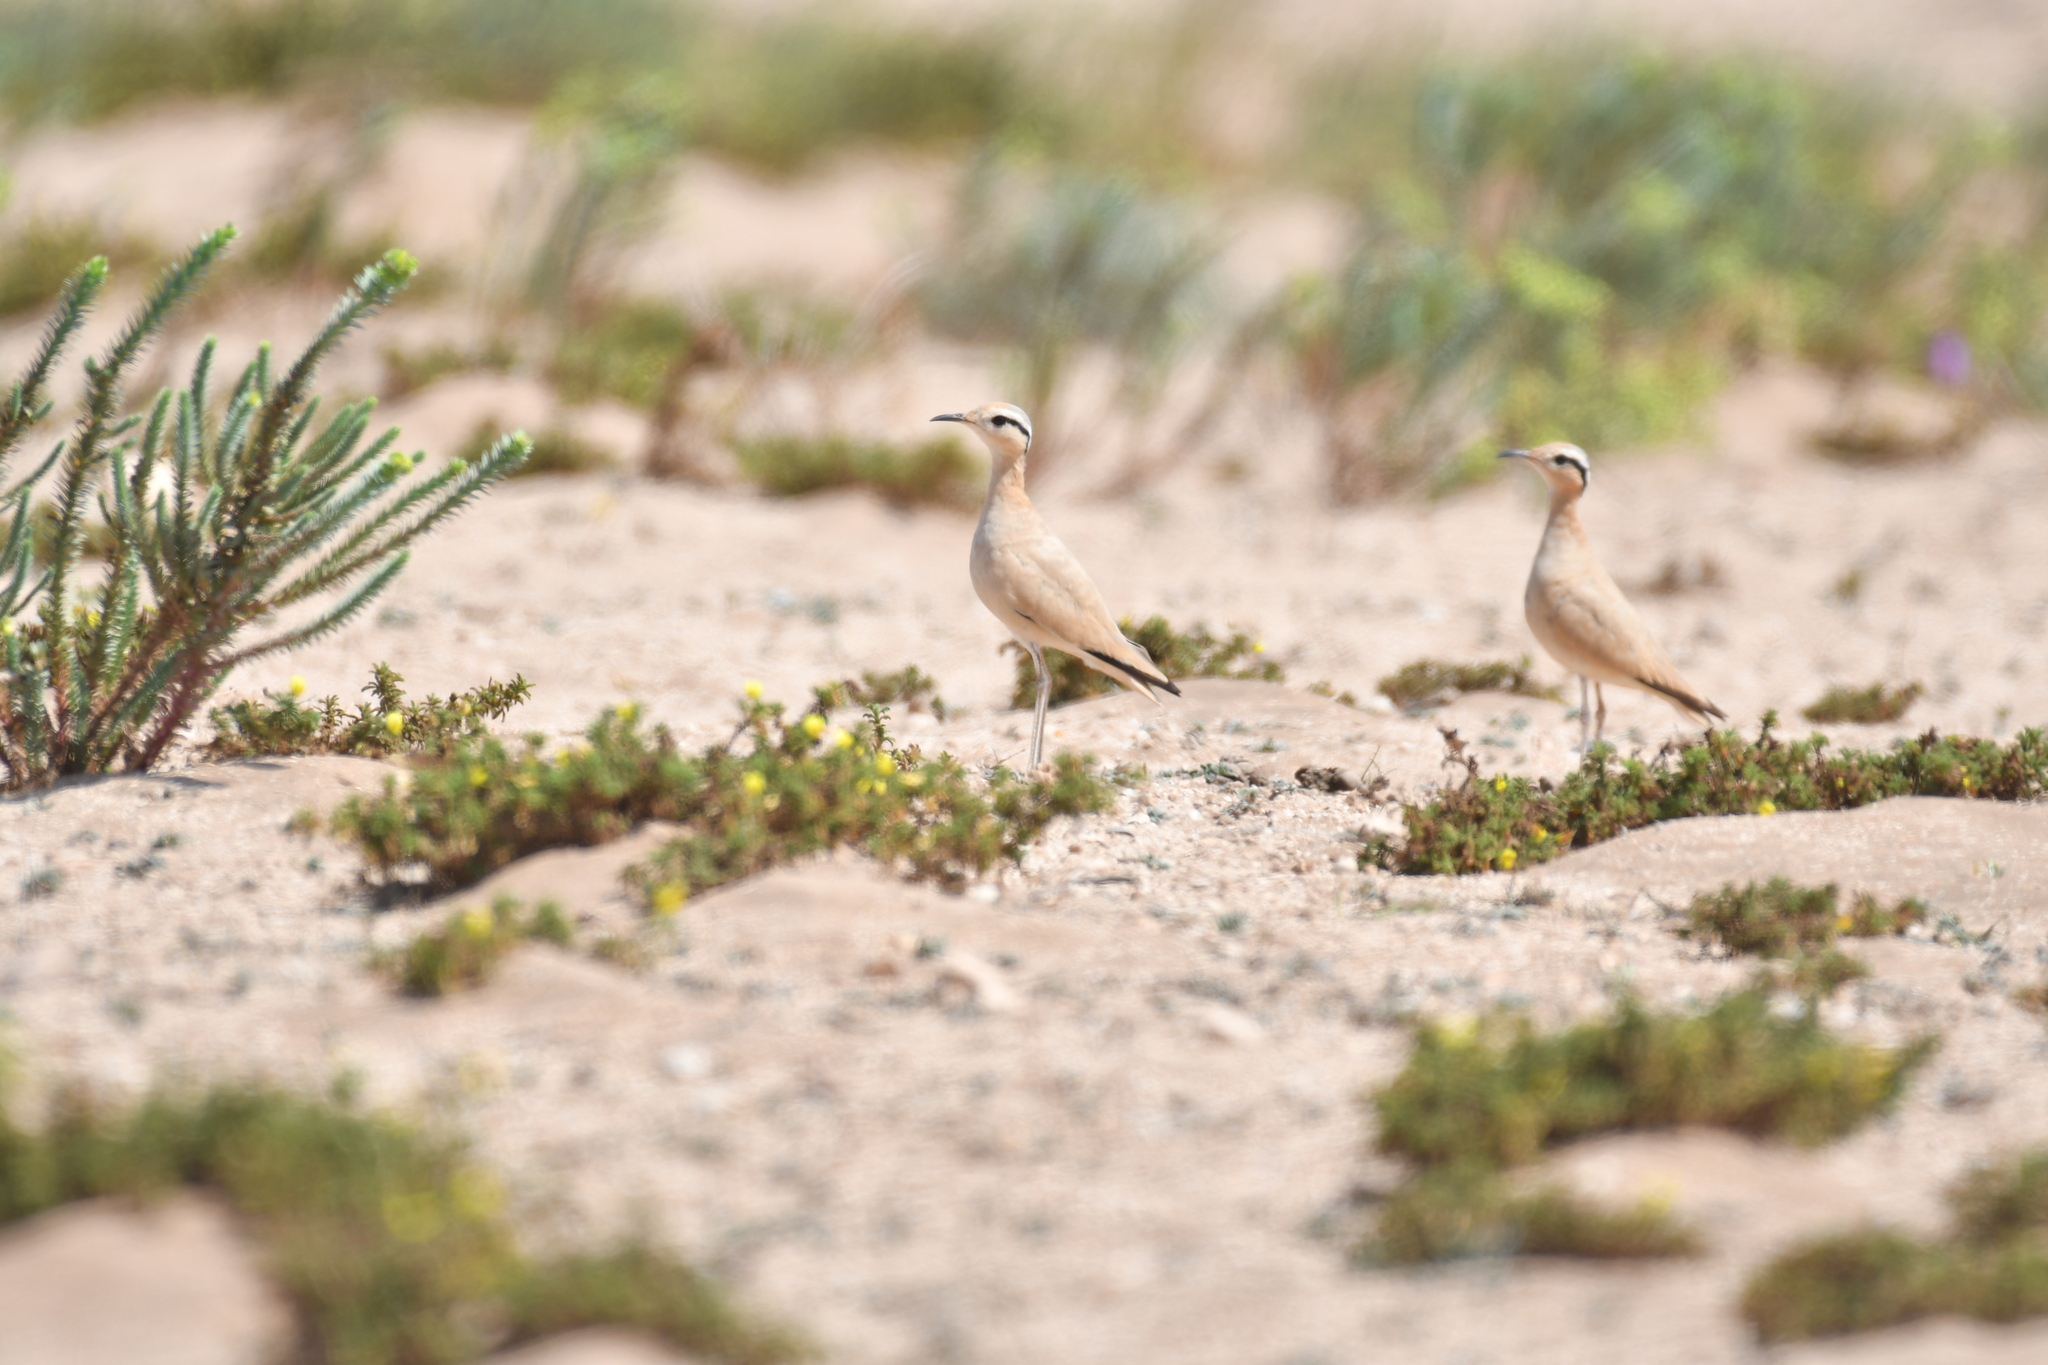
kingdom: Animalia
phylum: Chordata
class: Aves
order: Charadriiformes
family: Glareolidae
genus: Cursorius
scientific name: Cursorius cursor
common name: Cream-colored courser
